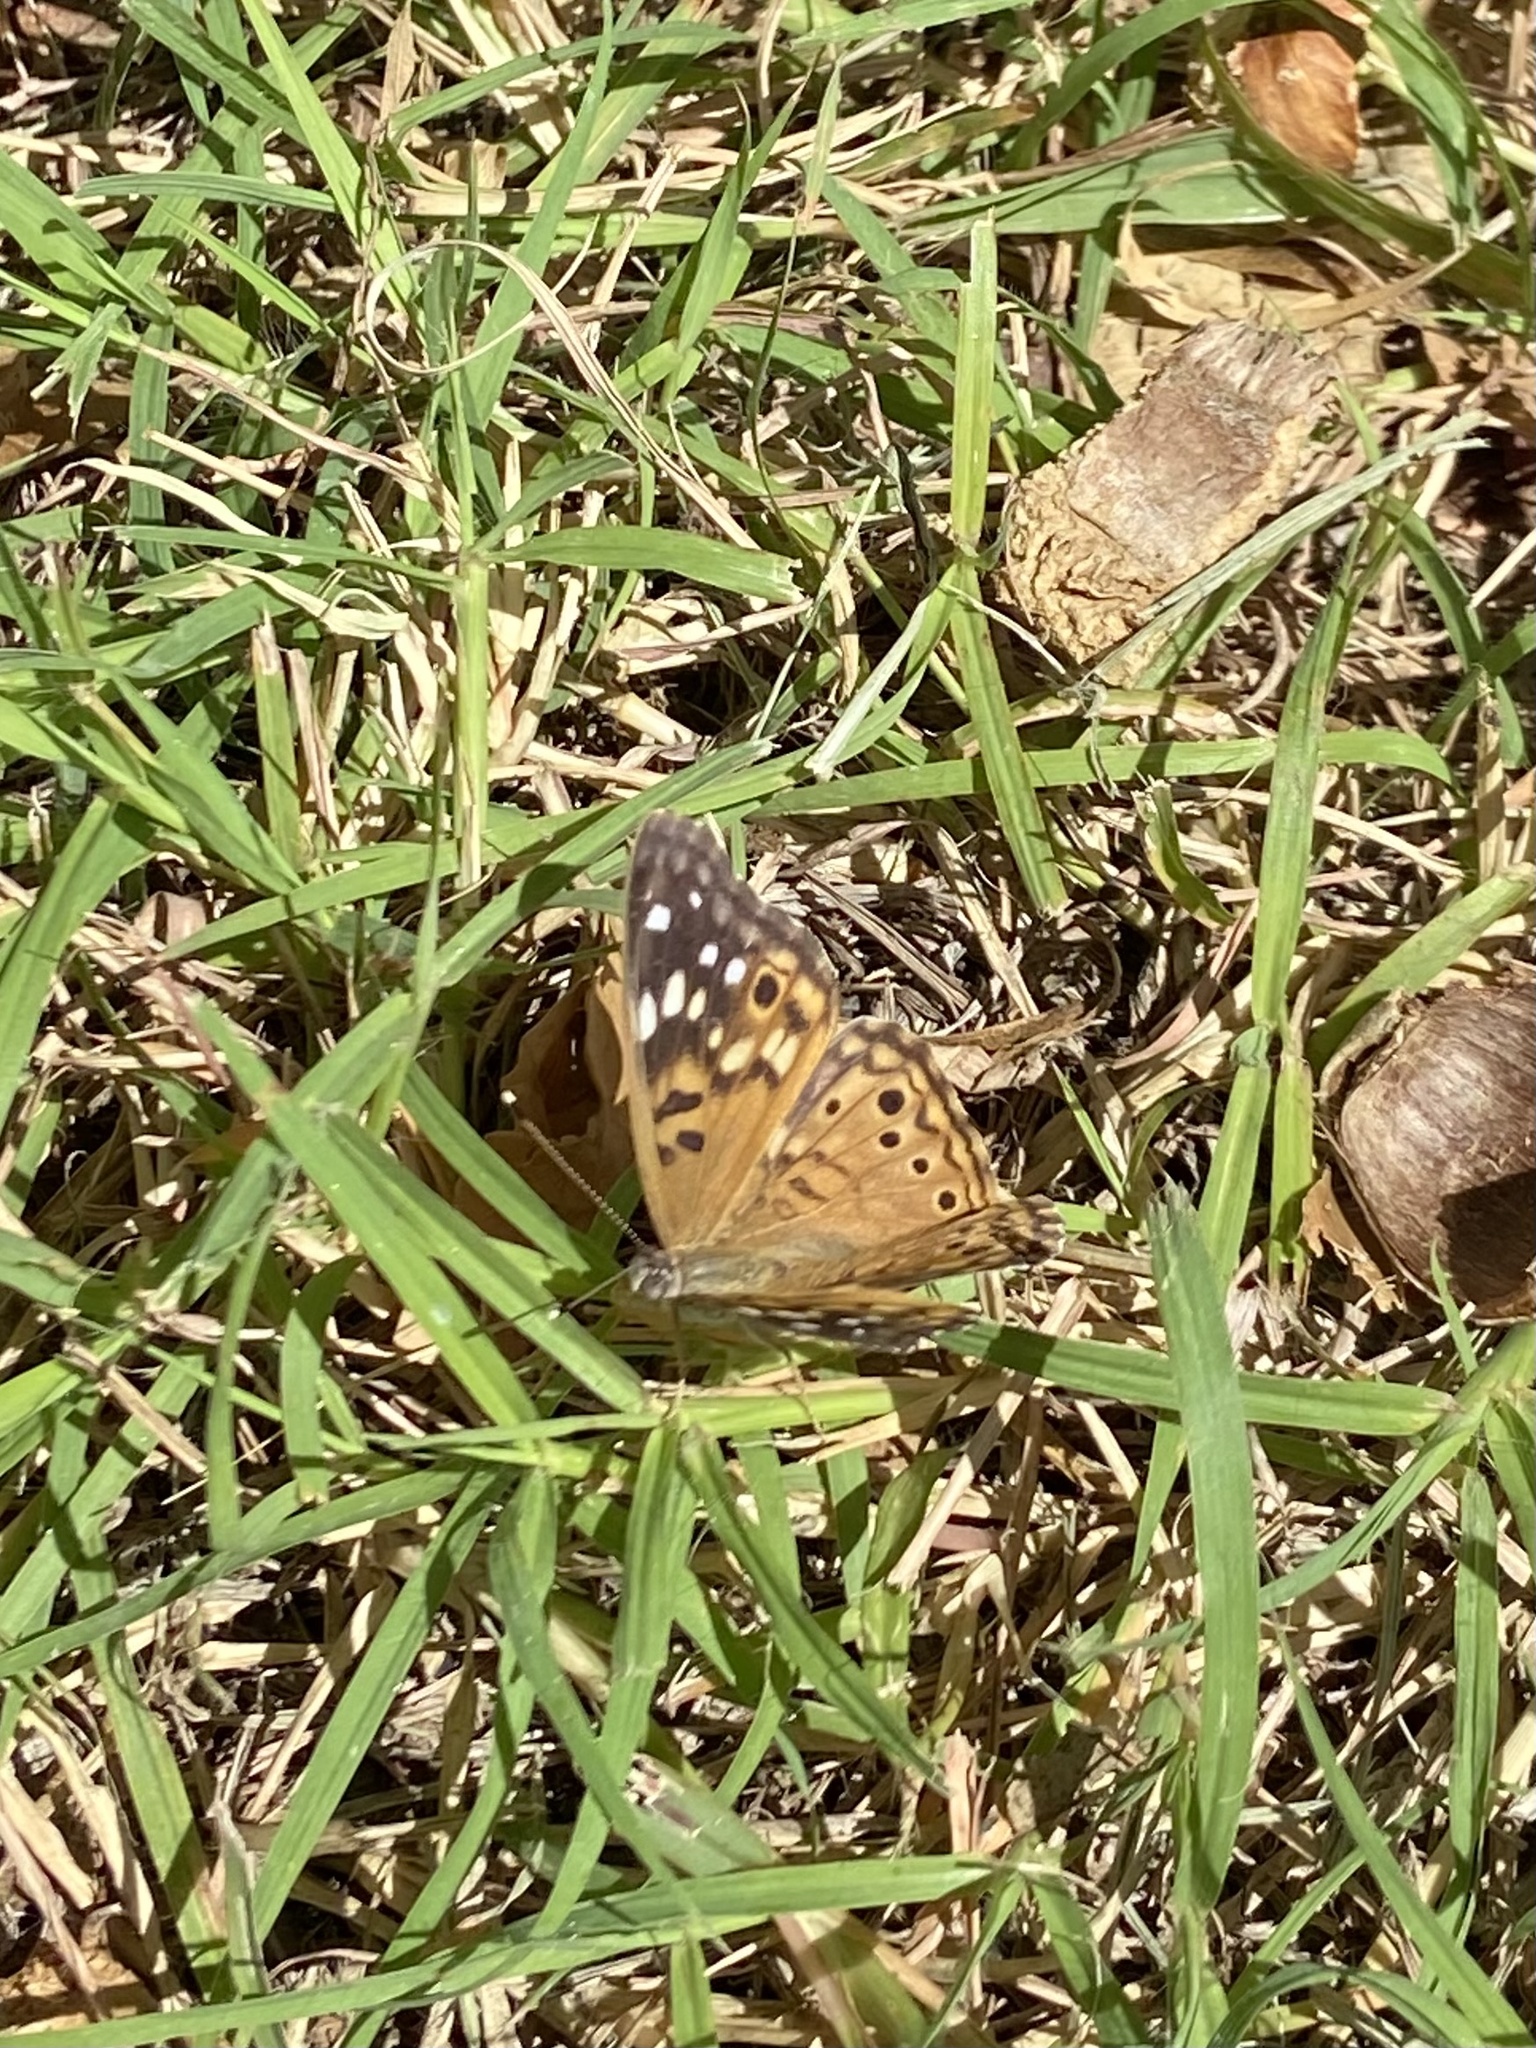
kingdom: Animalia
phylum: Arthropoda
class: Insecta
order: Lepidoptera
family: Nymphalidae
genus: Asterocampa
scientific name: Asterocampa celtis
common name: Hackberry emperor
